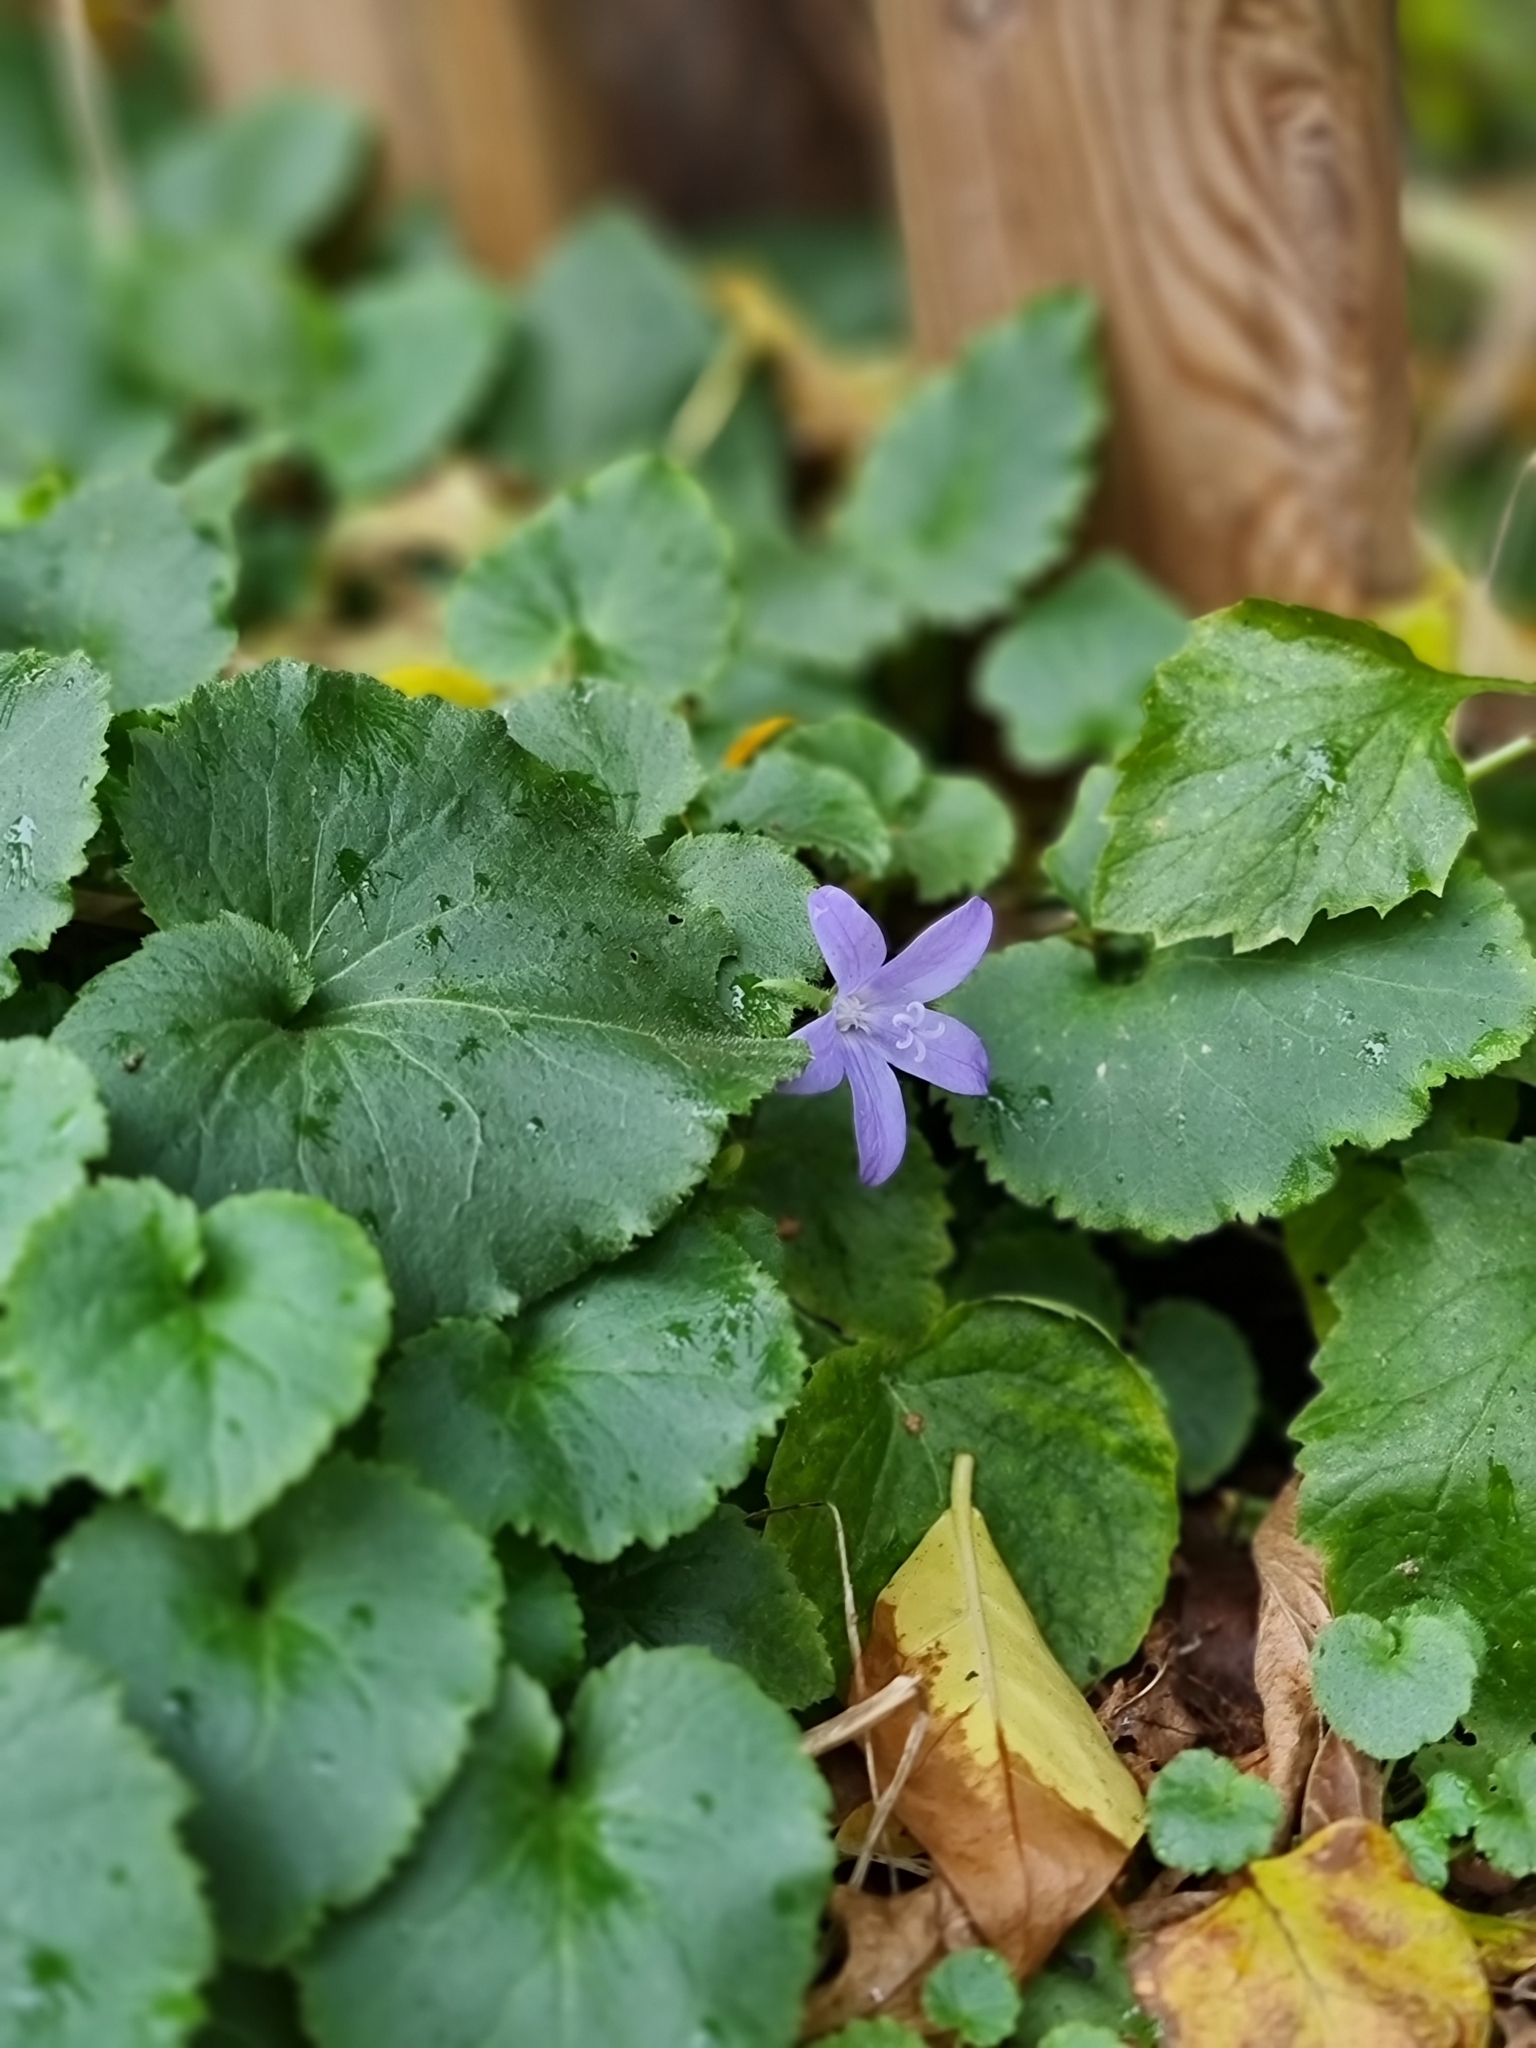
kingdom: Plantae
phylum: Tracheophyta
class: Magnoliopsida
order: Asterales
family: Campanulaceae
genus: Campanula
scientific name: Campanula poscharskyana
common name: Trailing bellflower
